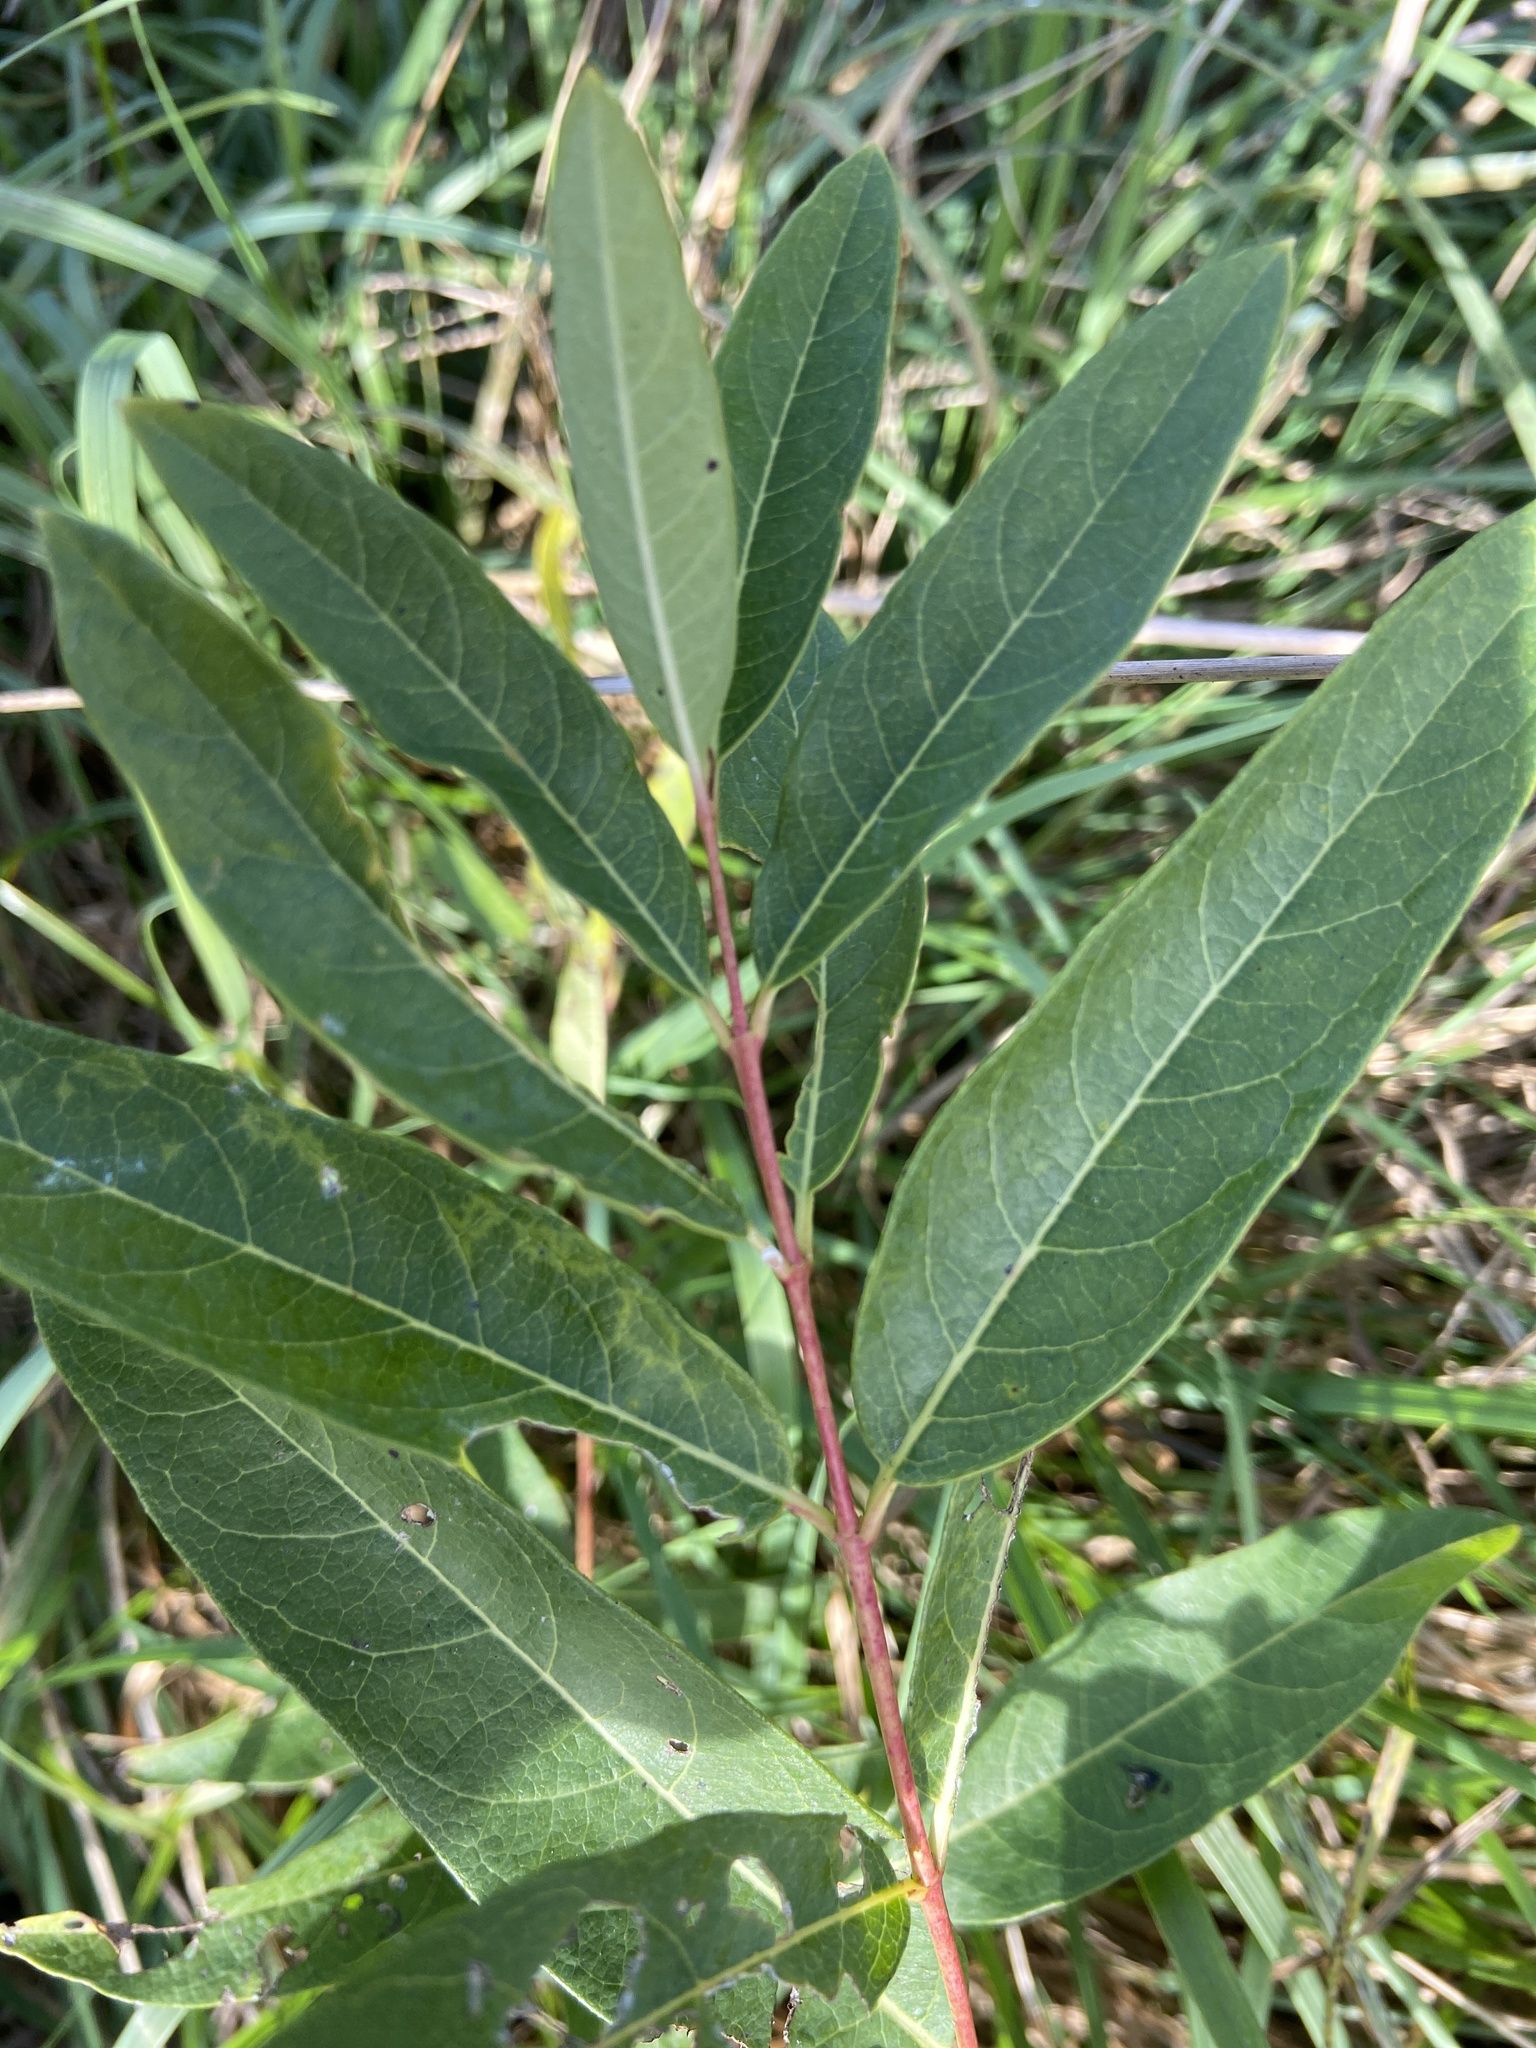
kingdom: Plantae
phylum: Tracheophyta
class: Magnoliopsida
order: Gentianales
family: Apocynaceae
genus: Apocynum
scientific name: Apocynum cannabinum
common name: Hemp dogbane
